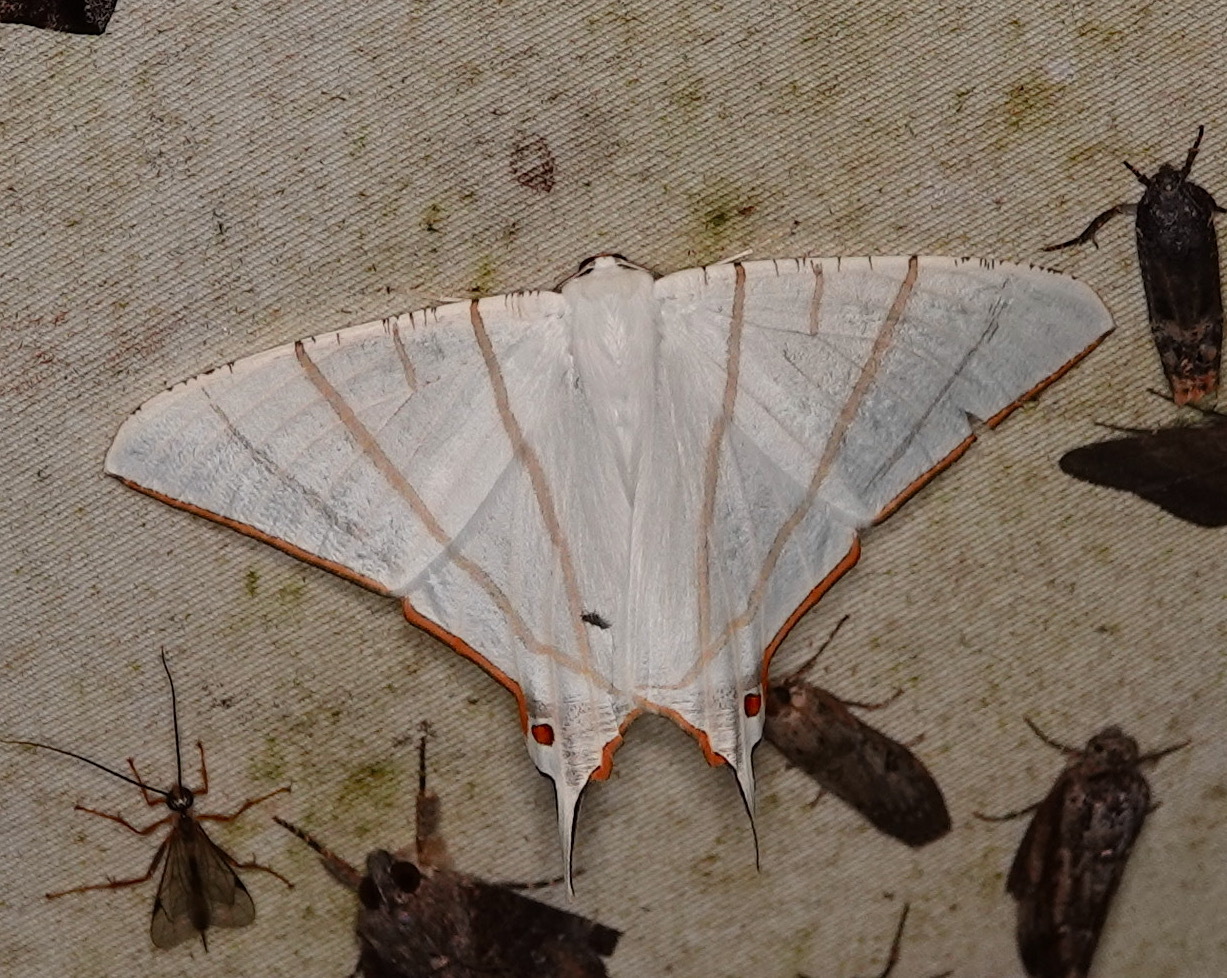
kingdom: Animalia
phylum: Arthropoda
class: Insecta
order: Lepidoptera
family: Geometridae
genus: Ourapteryx
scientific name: Ourapteryx podaliriata
